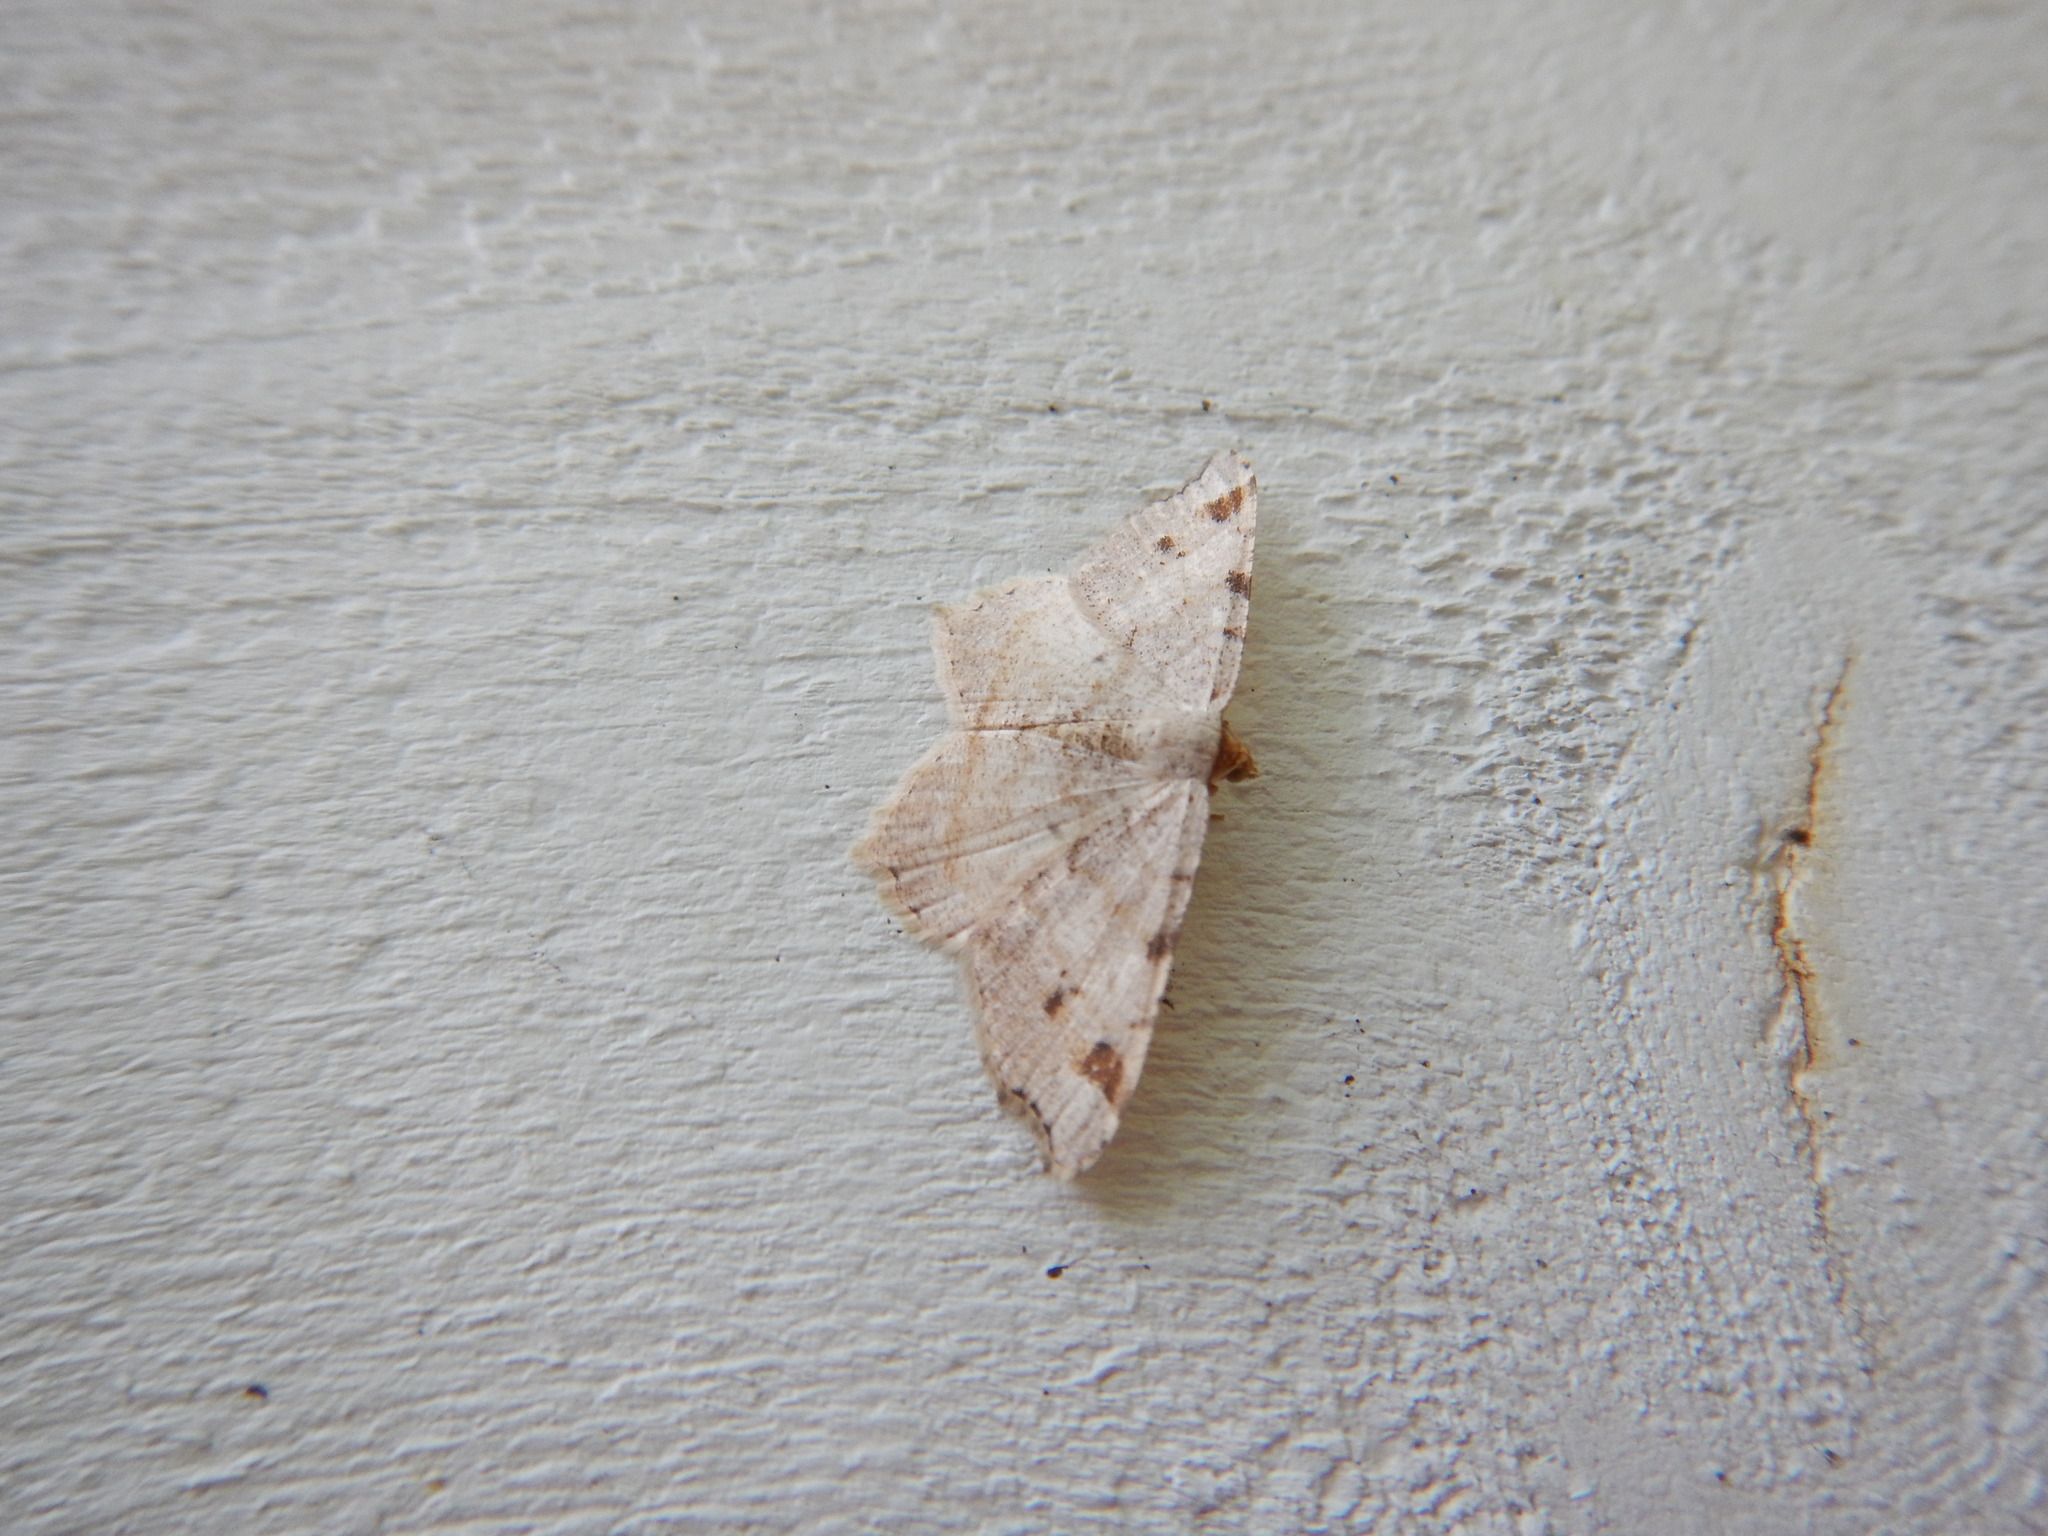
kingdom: Animalia
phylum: Arthropoda
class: Insecta
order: Lepidoptera
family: Geometridae
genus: Macaria
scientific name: Macaria bisignata
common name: Red-headed inchworm
